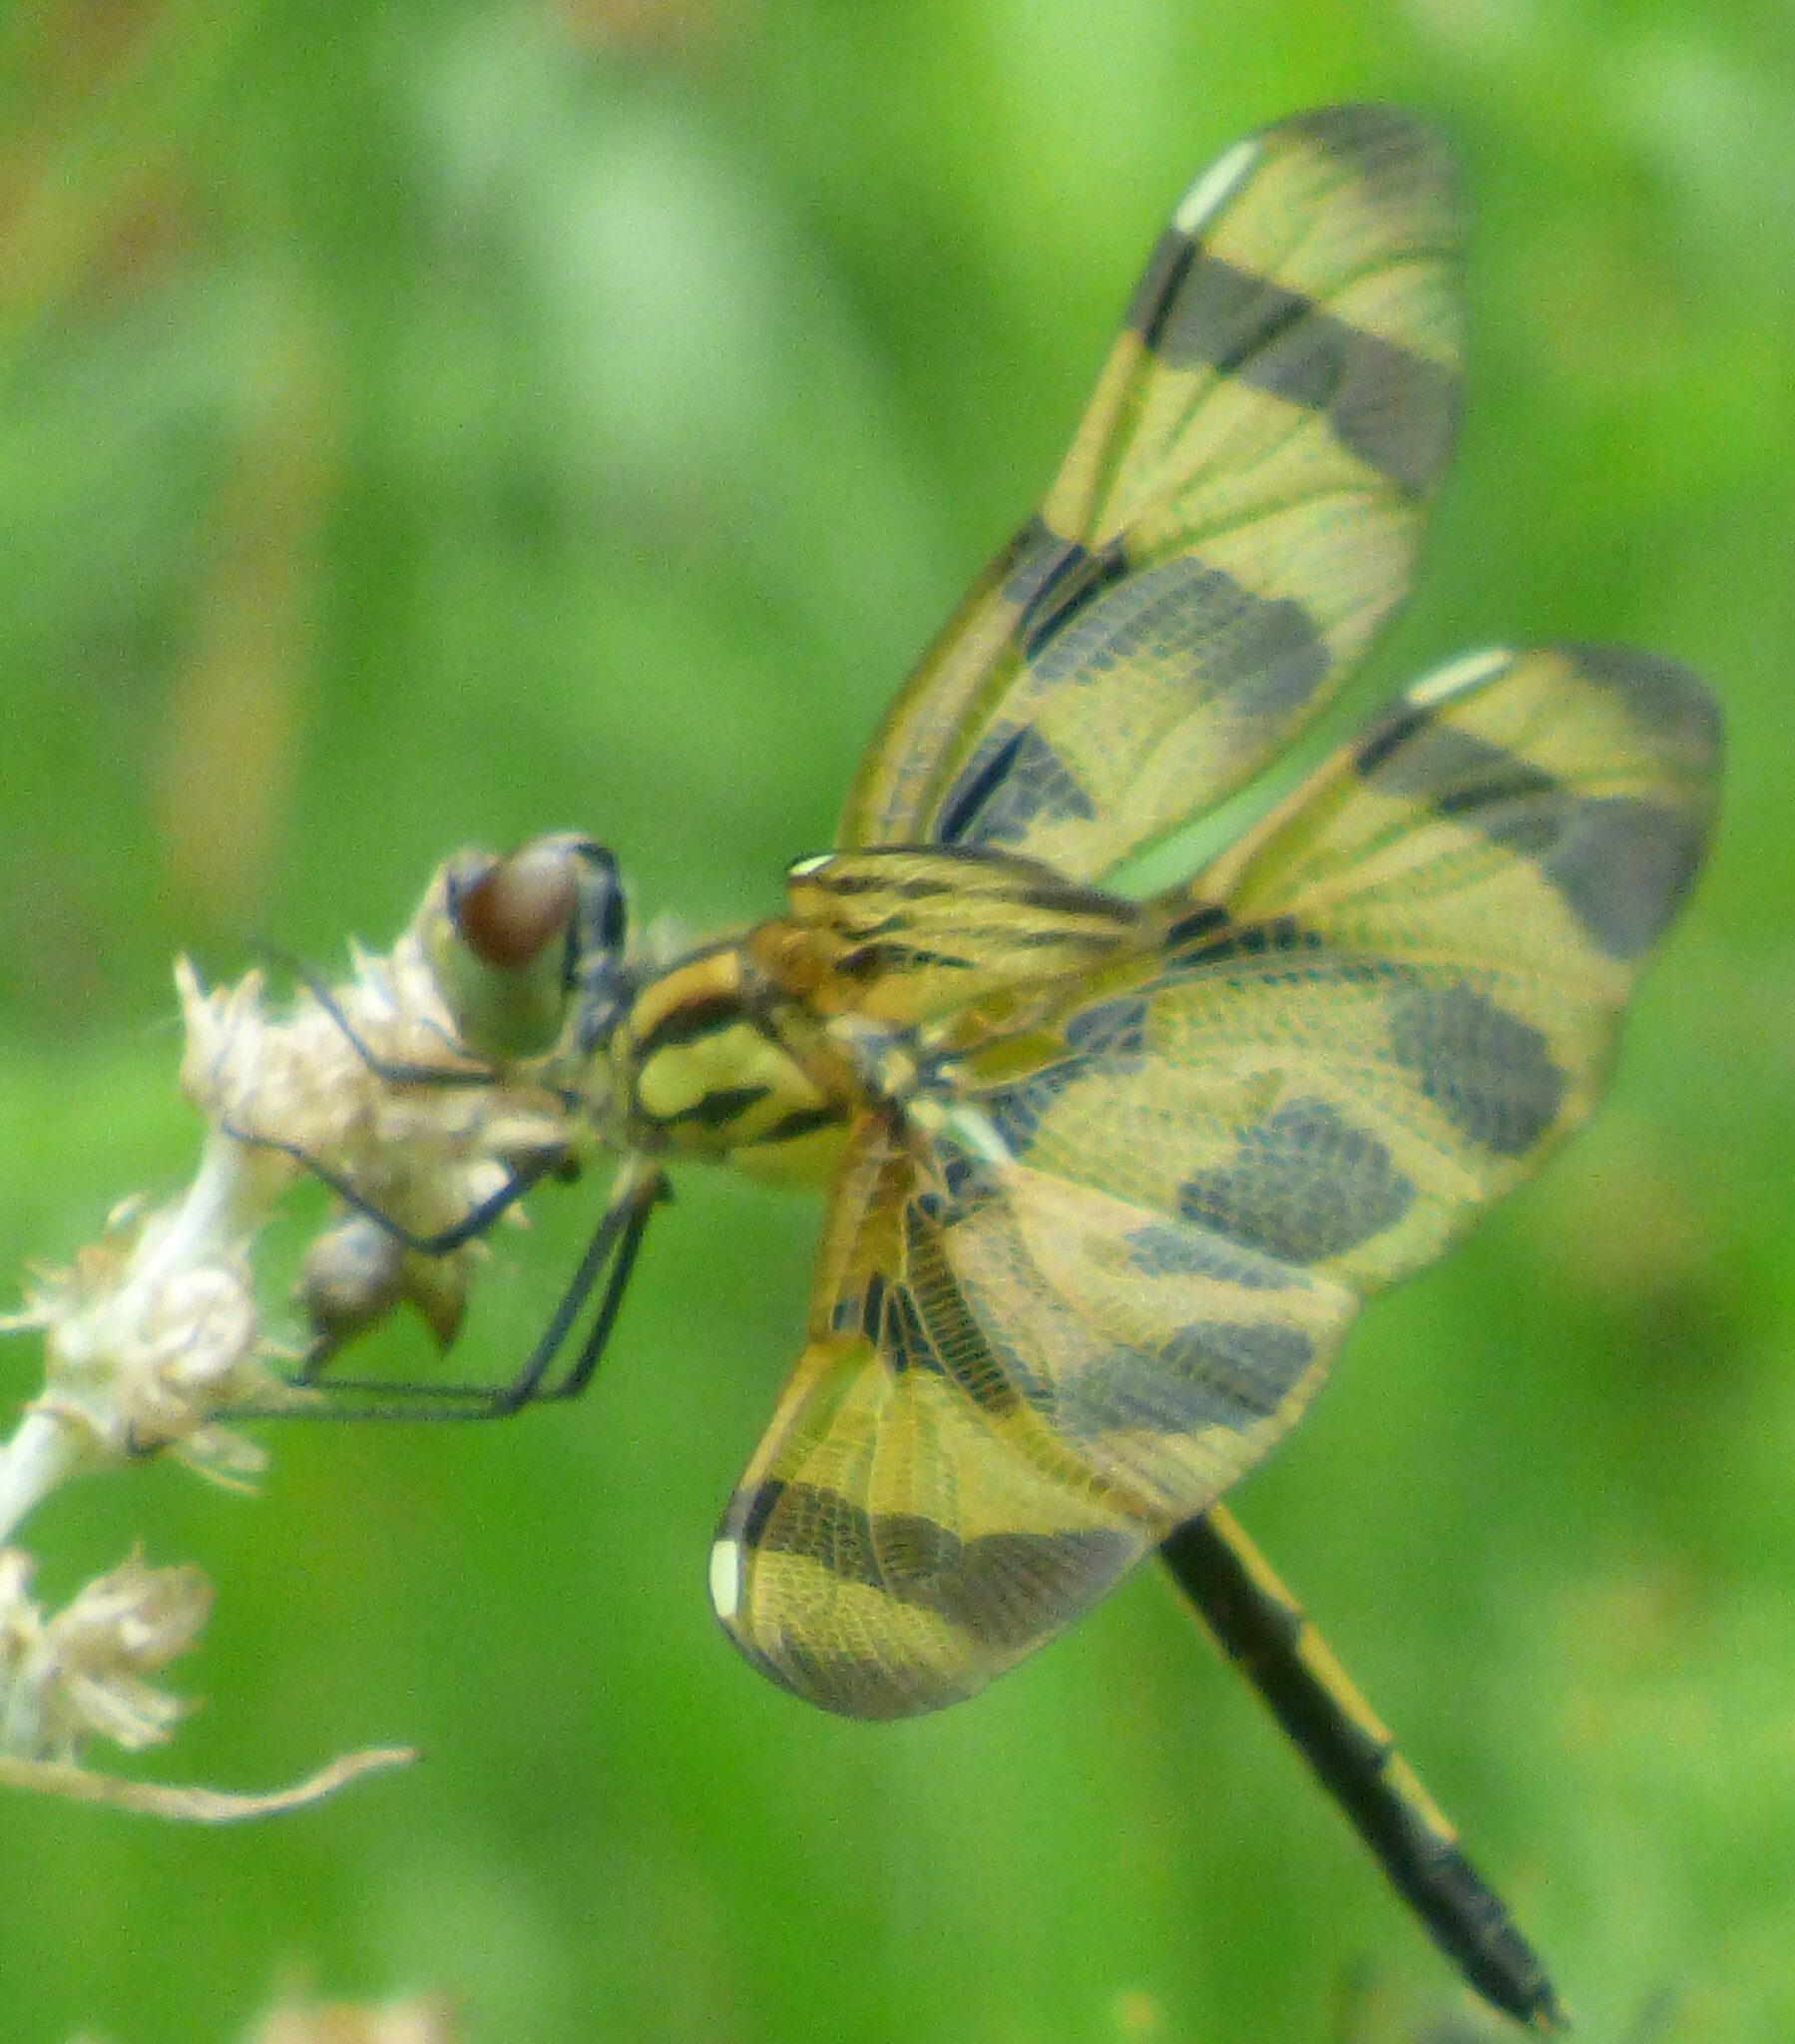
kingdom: Animalia
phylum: Arthropoda
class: Insecta
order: Odonata
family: Libellulidae
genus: Celithemis
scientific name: Celithemis eponina
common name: Halloween pennant
